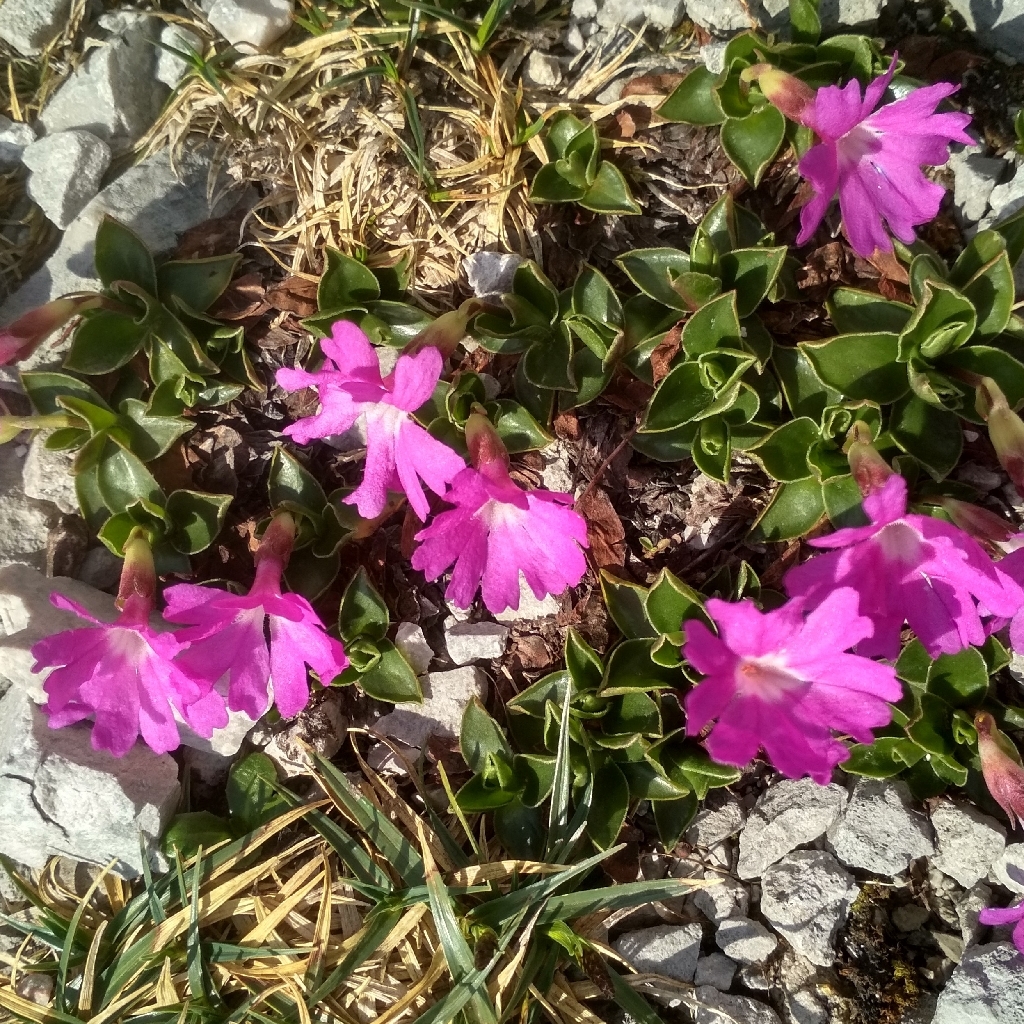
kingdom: Plantae
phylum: Tracheophyta
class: Magnoliopsida
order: Ericales
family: Primulaceae
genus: Primula
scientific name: Primula clusiana
